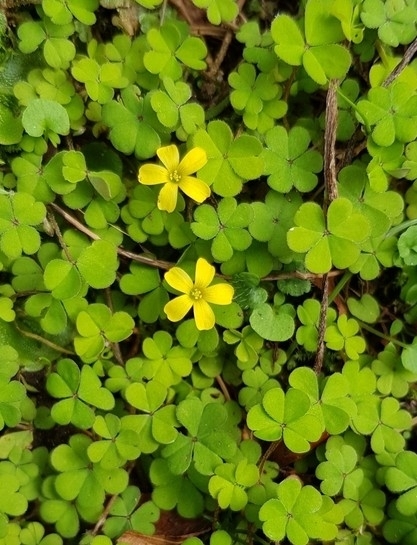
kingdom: Plantae
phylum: Tracheophyta
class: Magnoliopsida
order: Oxalidales
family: Oxalidaceae
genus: Oxalis
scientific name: Oxalis exilis
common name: Least yellow-sorrel
